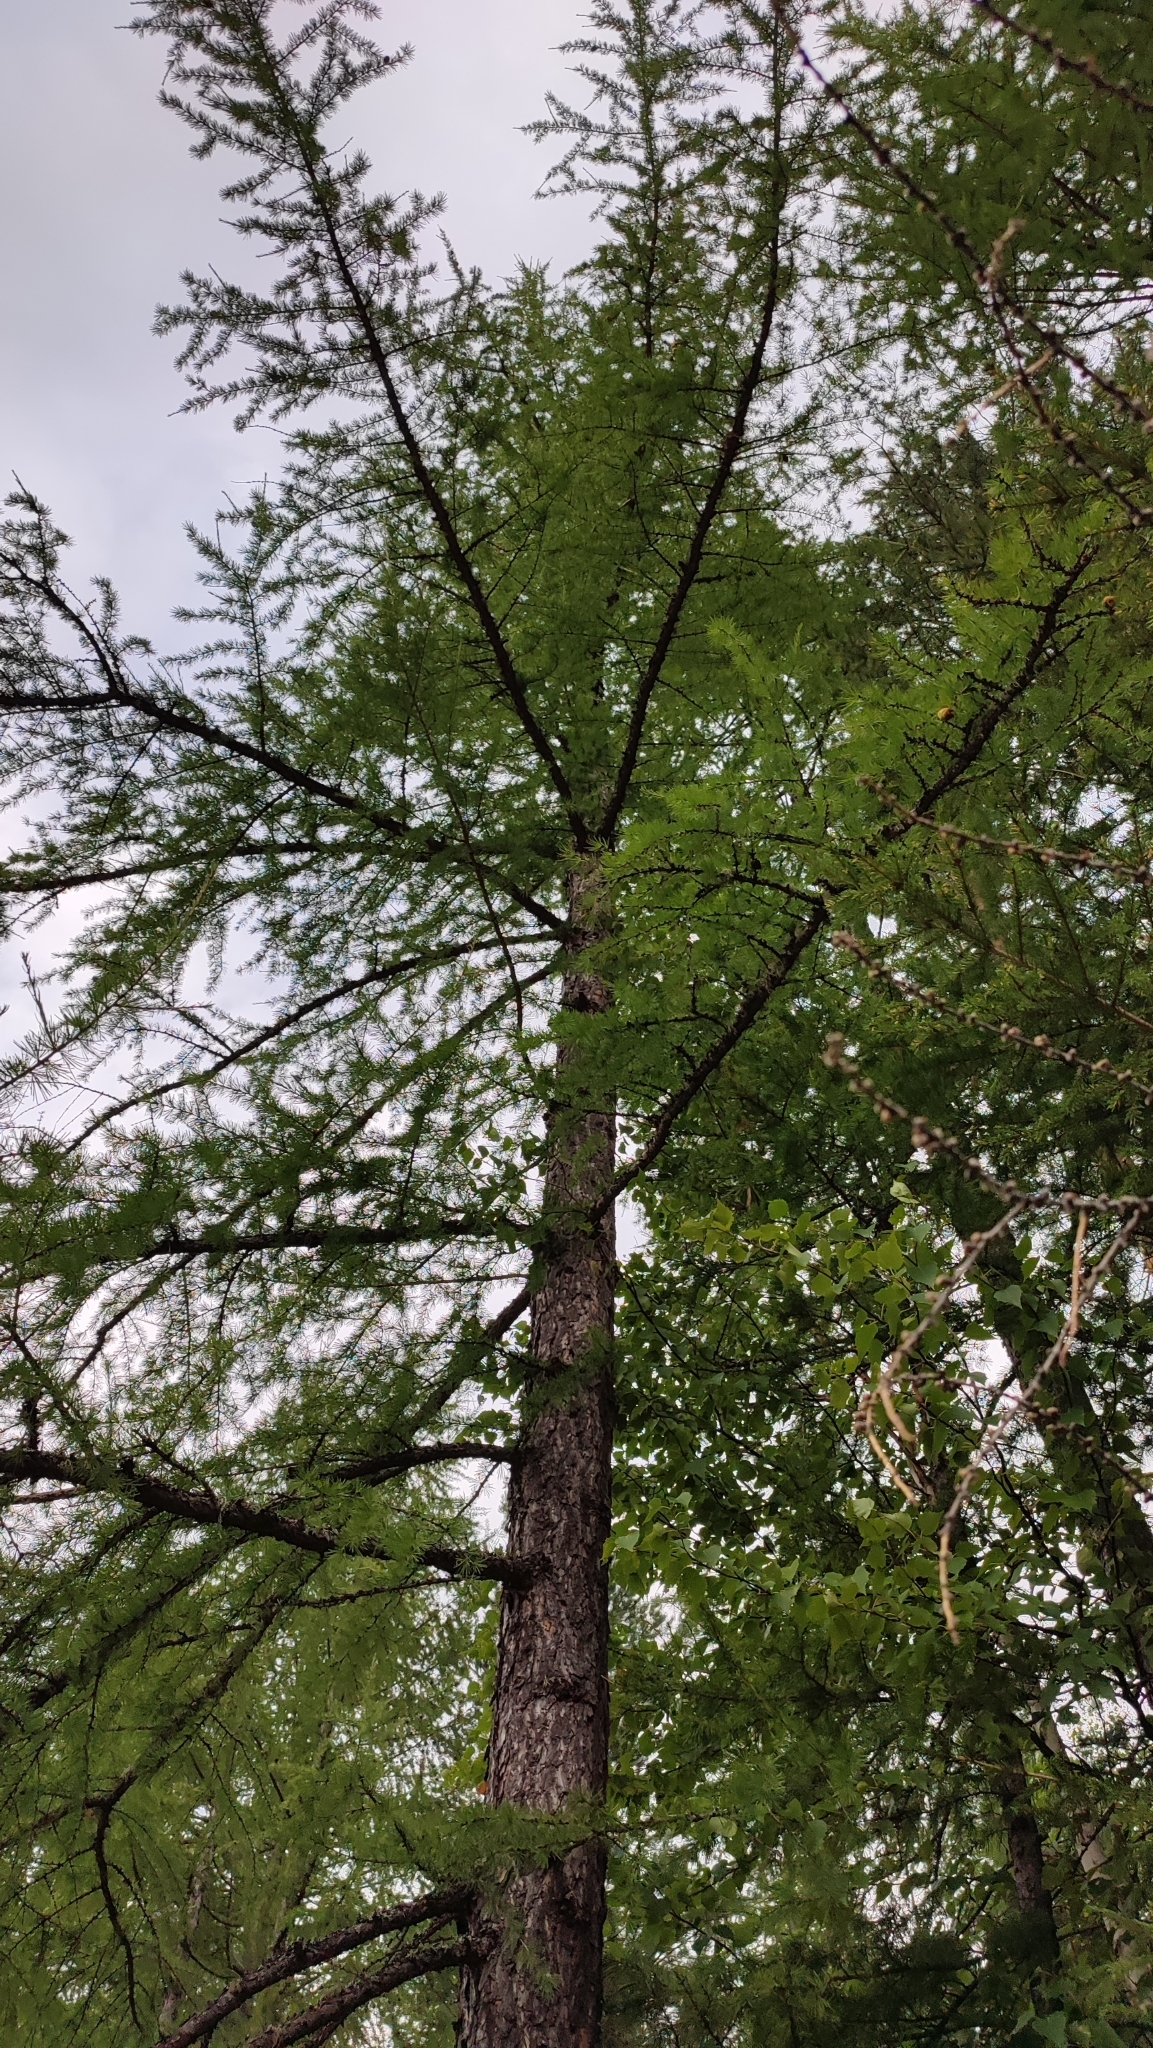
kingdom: Plantae
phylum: Tracheophyta
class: Pinopsida
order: Pinales
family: Pinaceae
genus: Larix
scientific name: Larix sibirica
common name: Siberian larch
